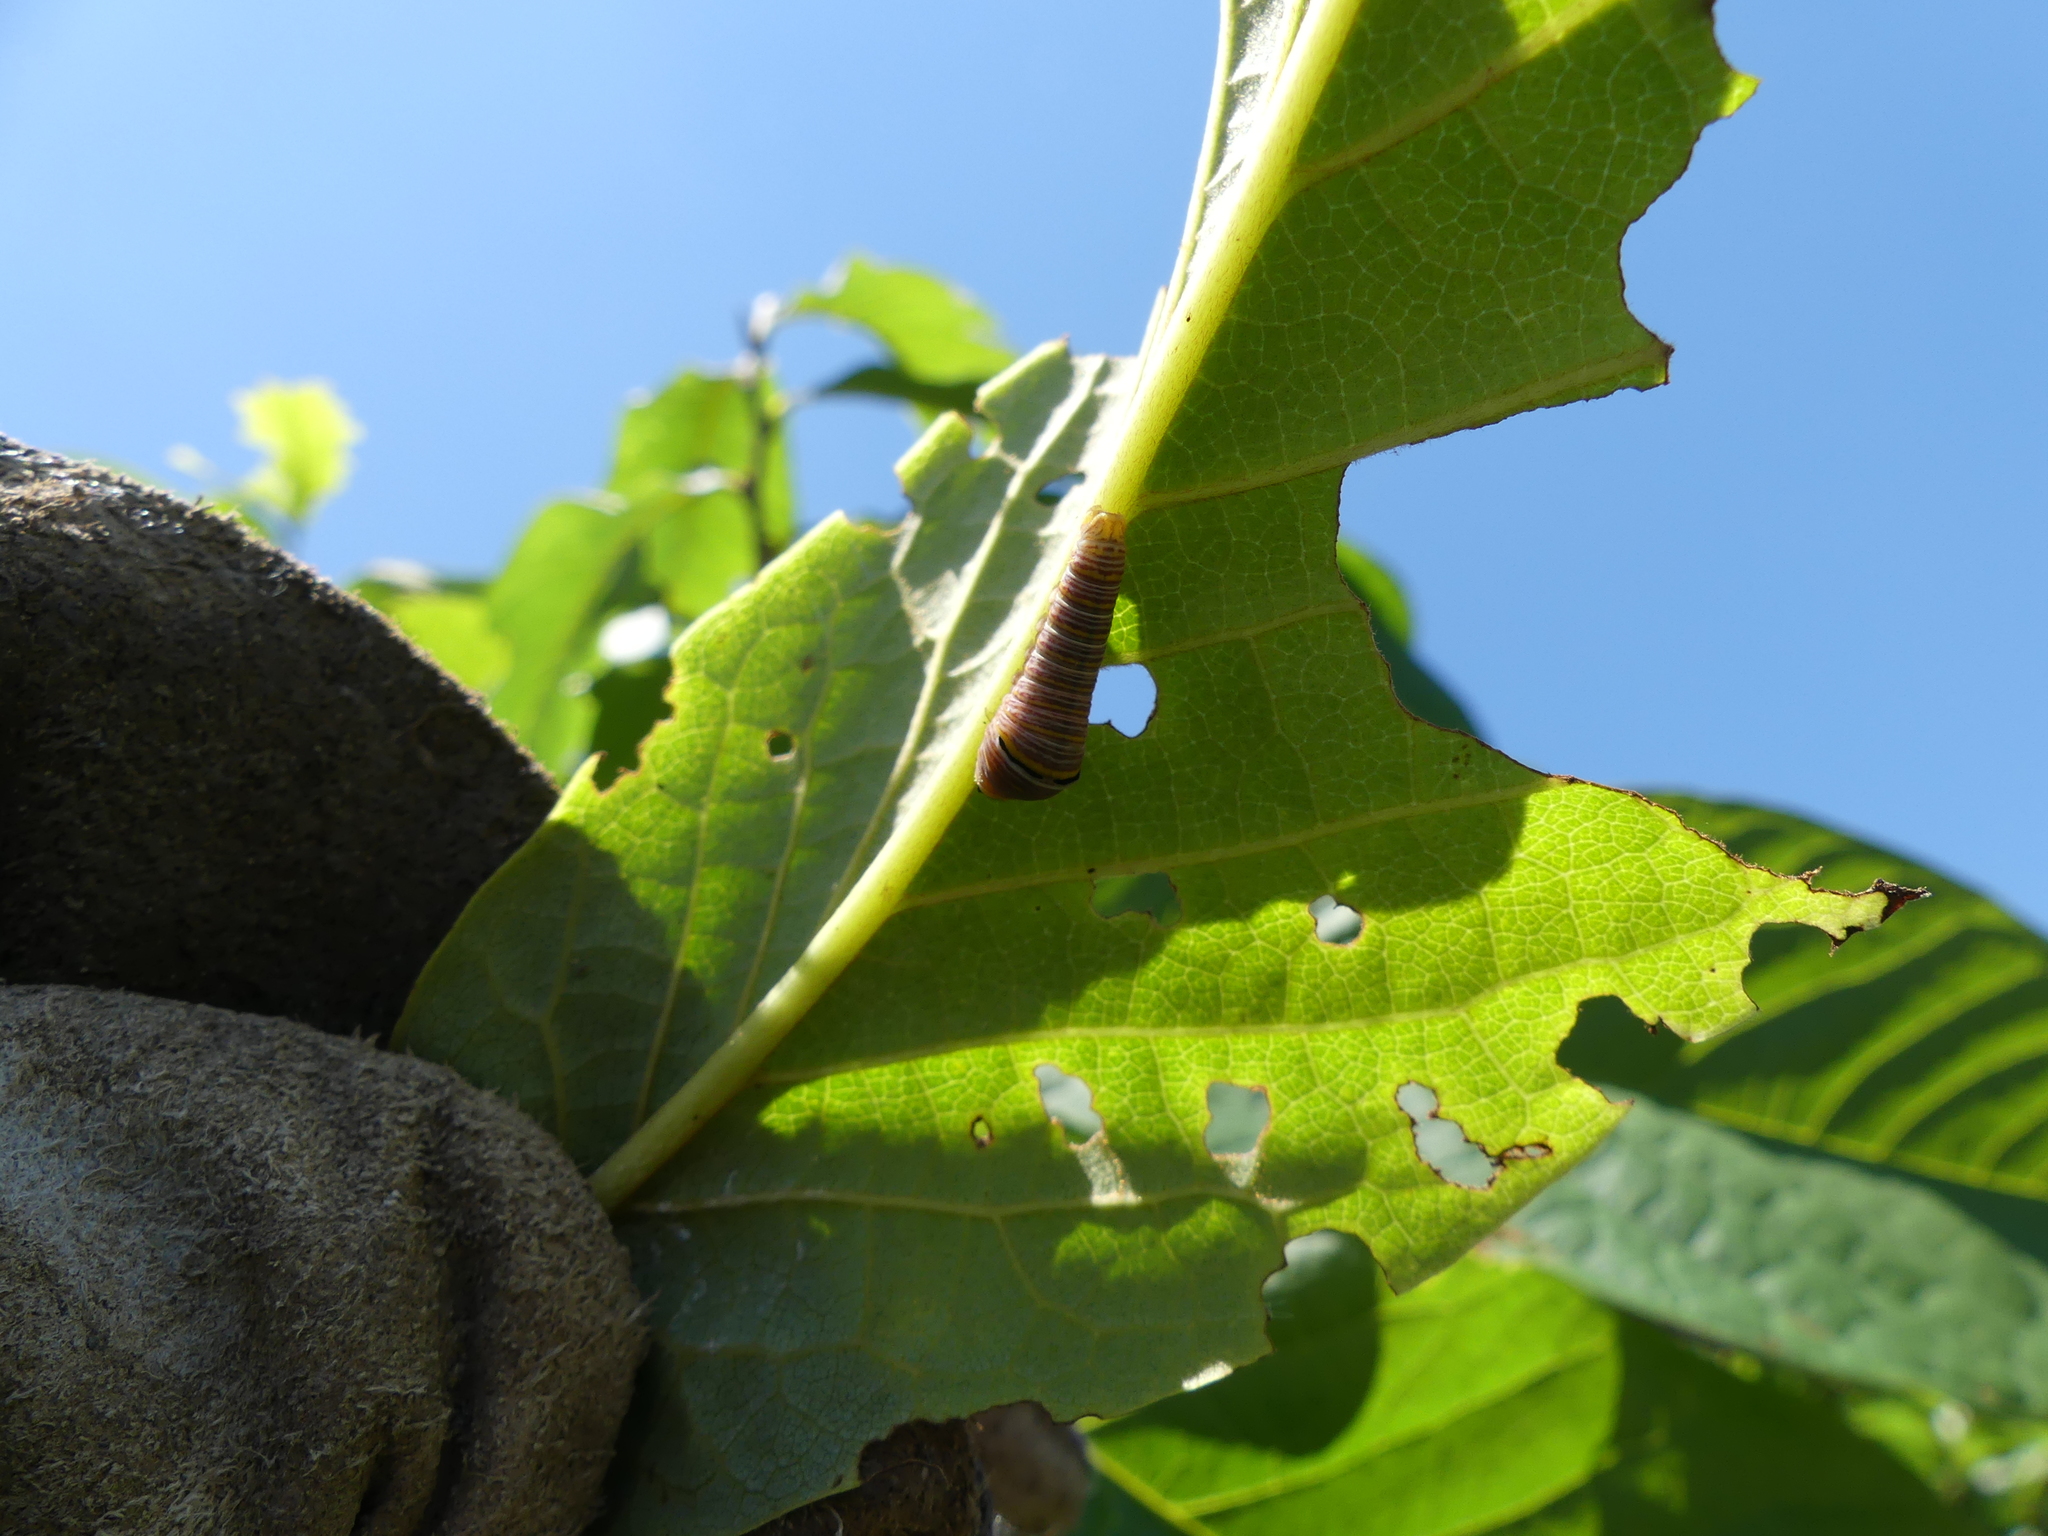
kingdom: Animalia
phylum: Arthropoda
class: Insecta
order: Lepidoptera
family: Papilionidae
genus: Protographium
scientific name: Protographium marcellus
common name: Zebra swallowtail
